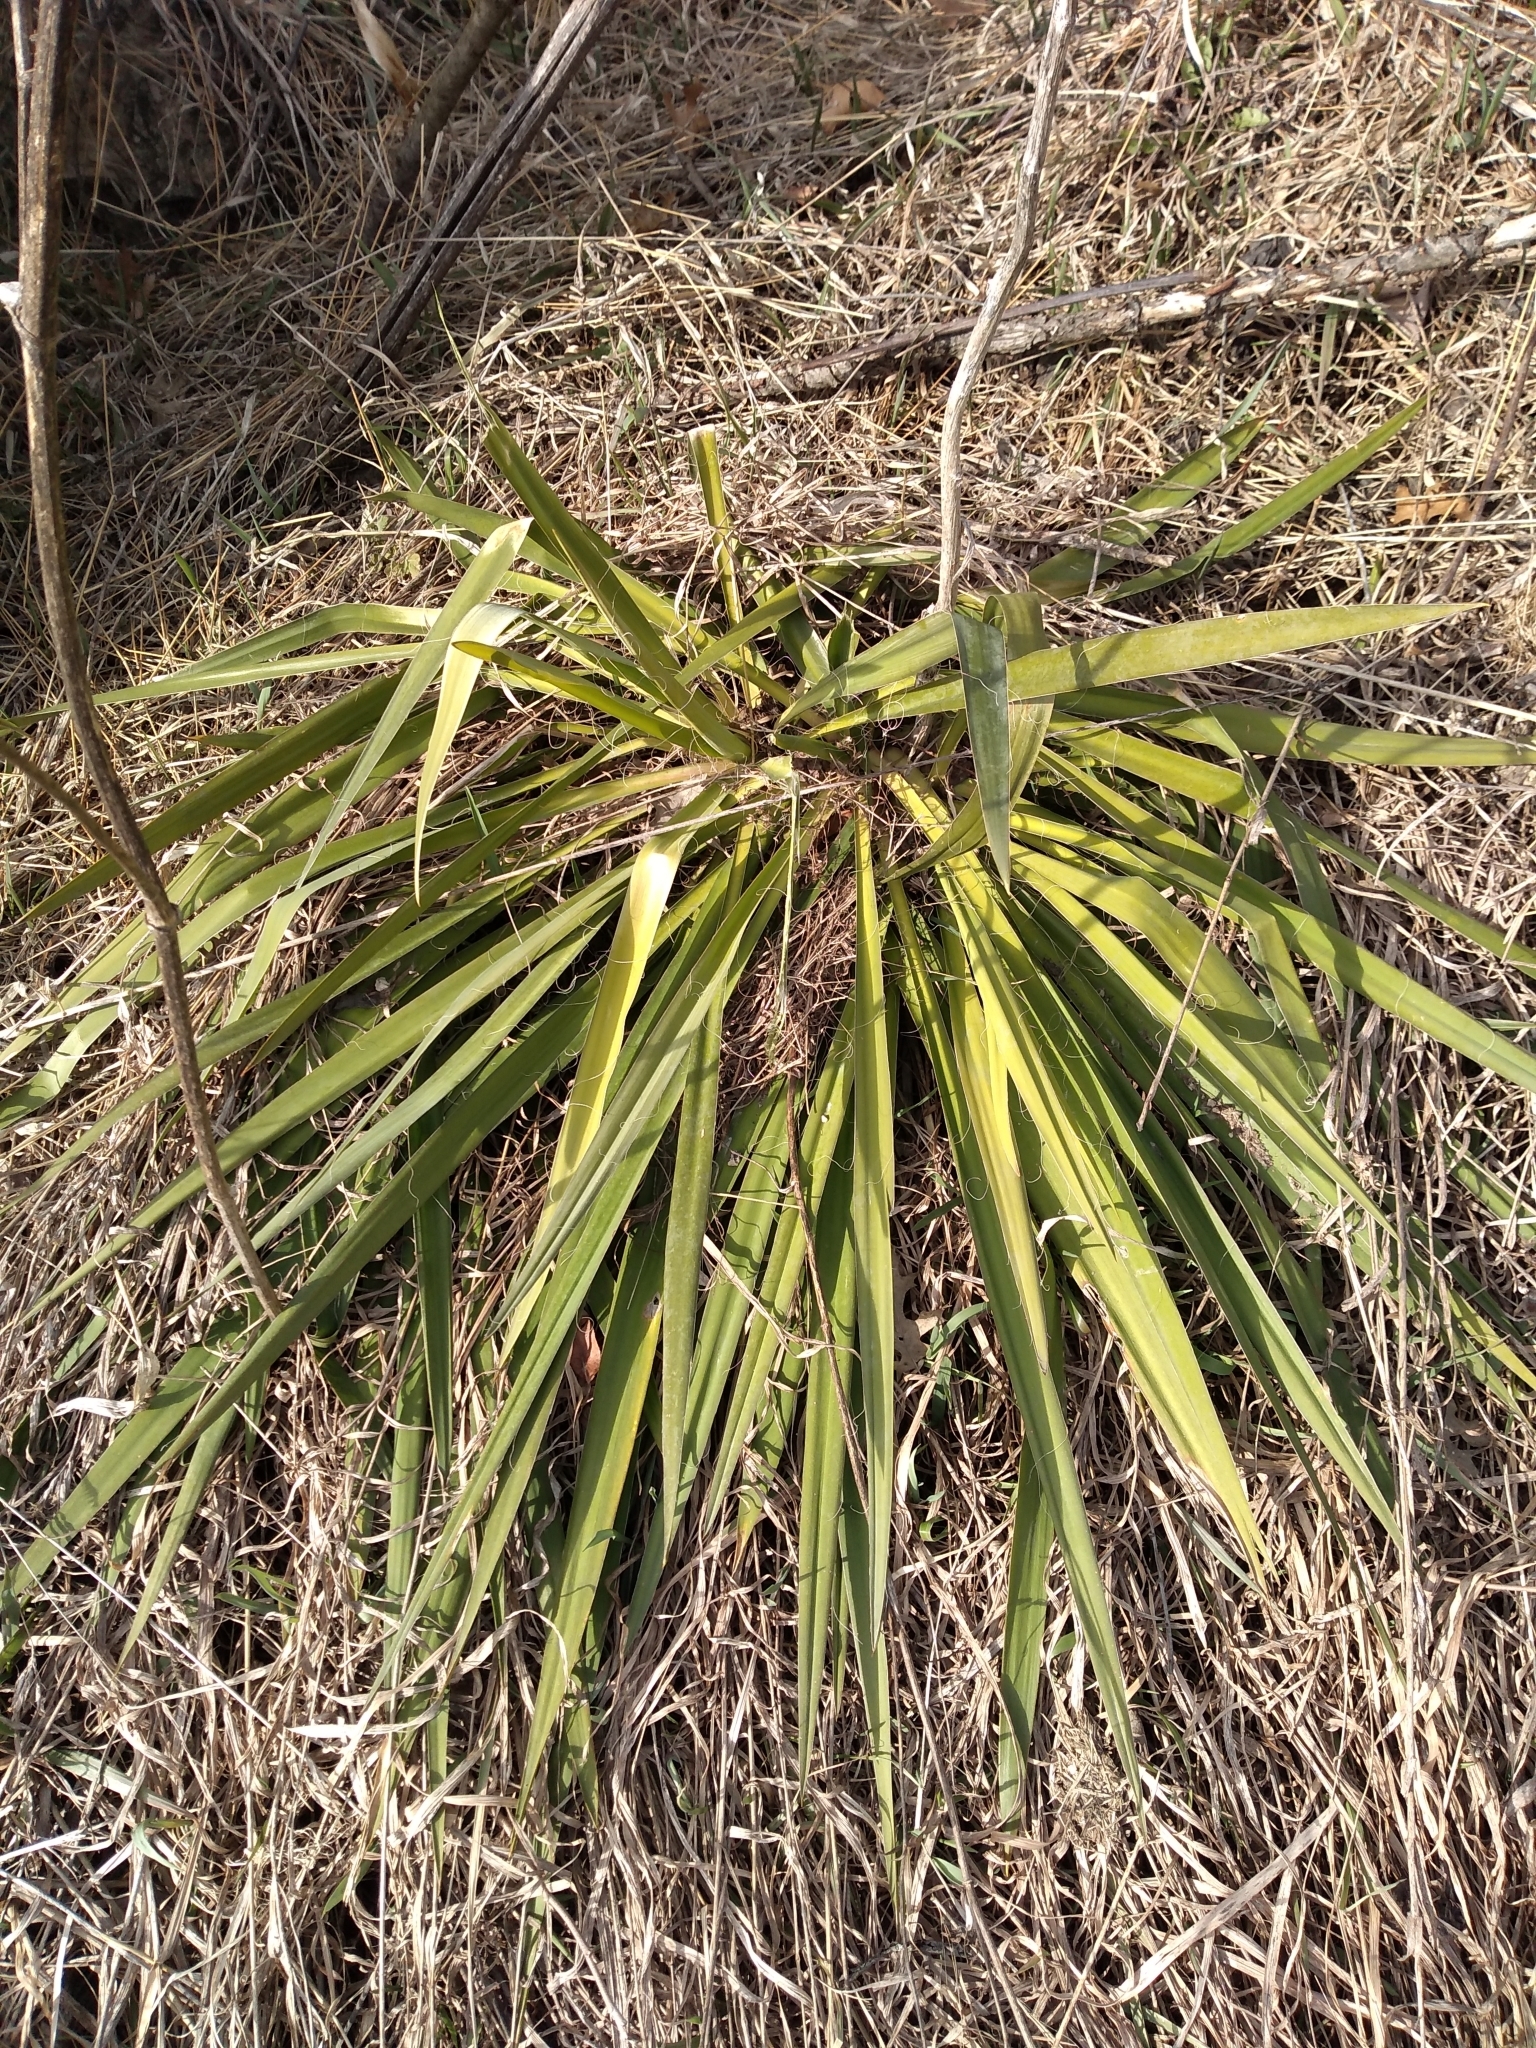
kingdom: Plantae
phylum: Tracheophyta
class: Liliopsida
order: Asparagales
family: Asparagaceae
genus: Yucca
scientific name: Yucca filamentosa
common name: Adam's-needle
